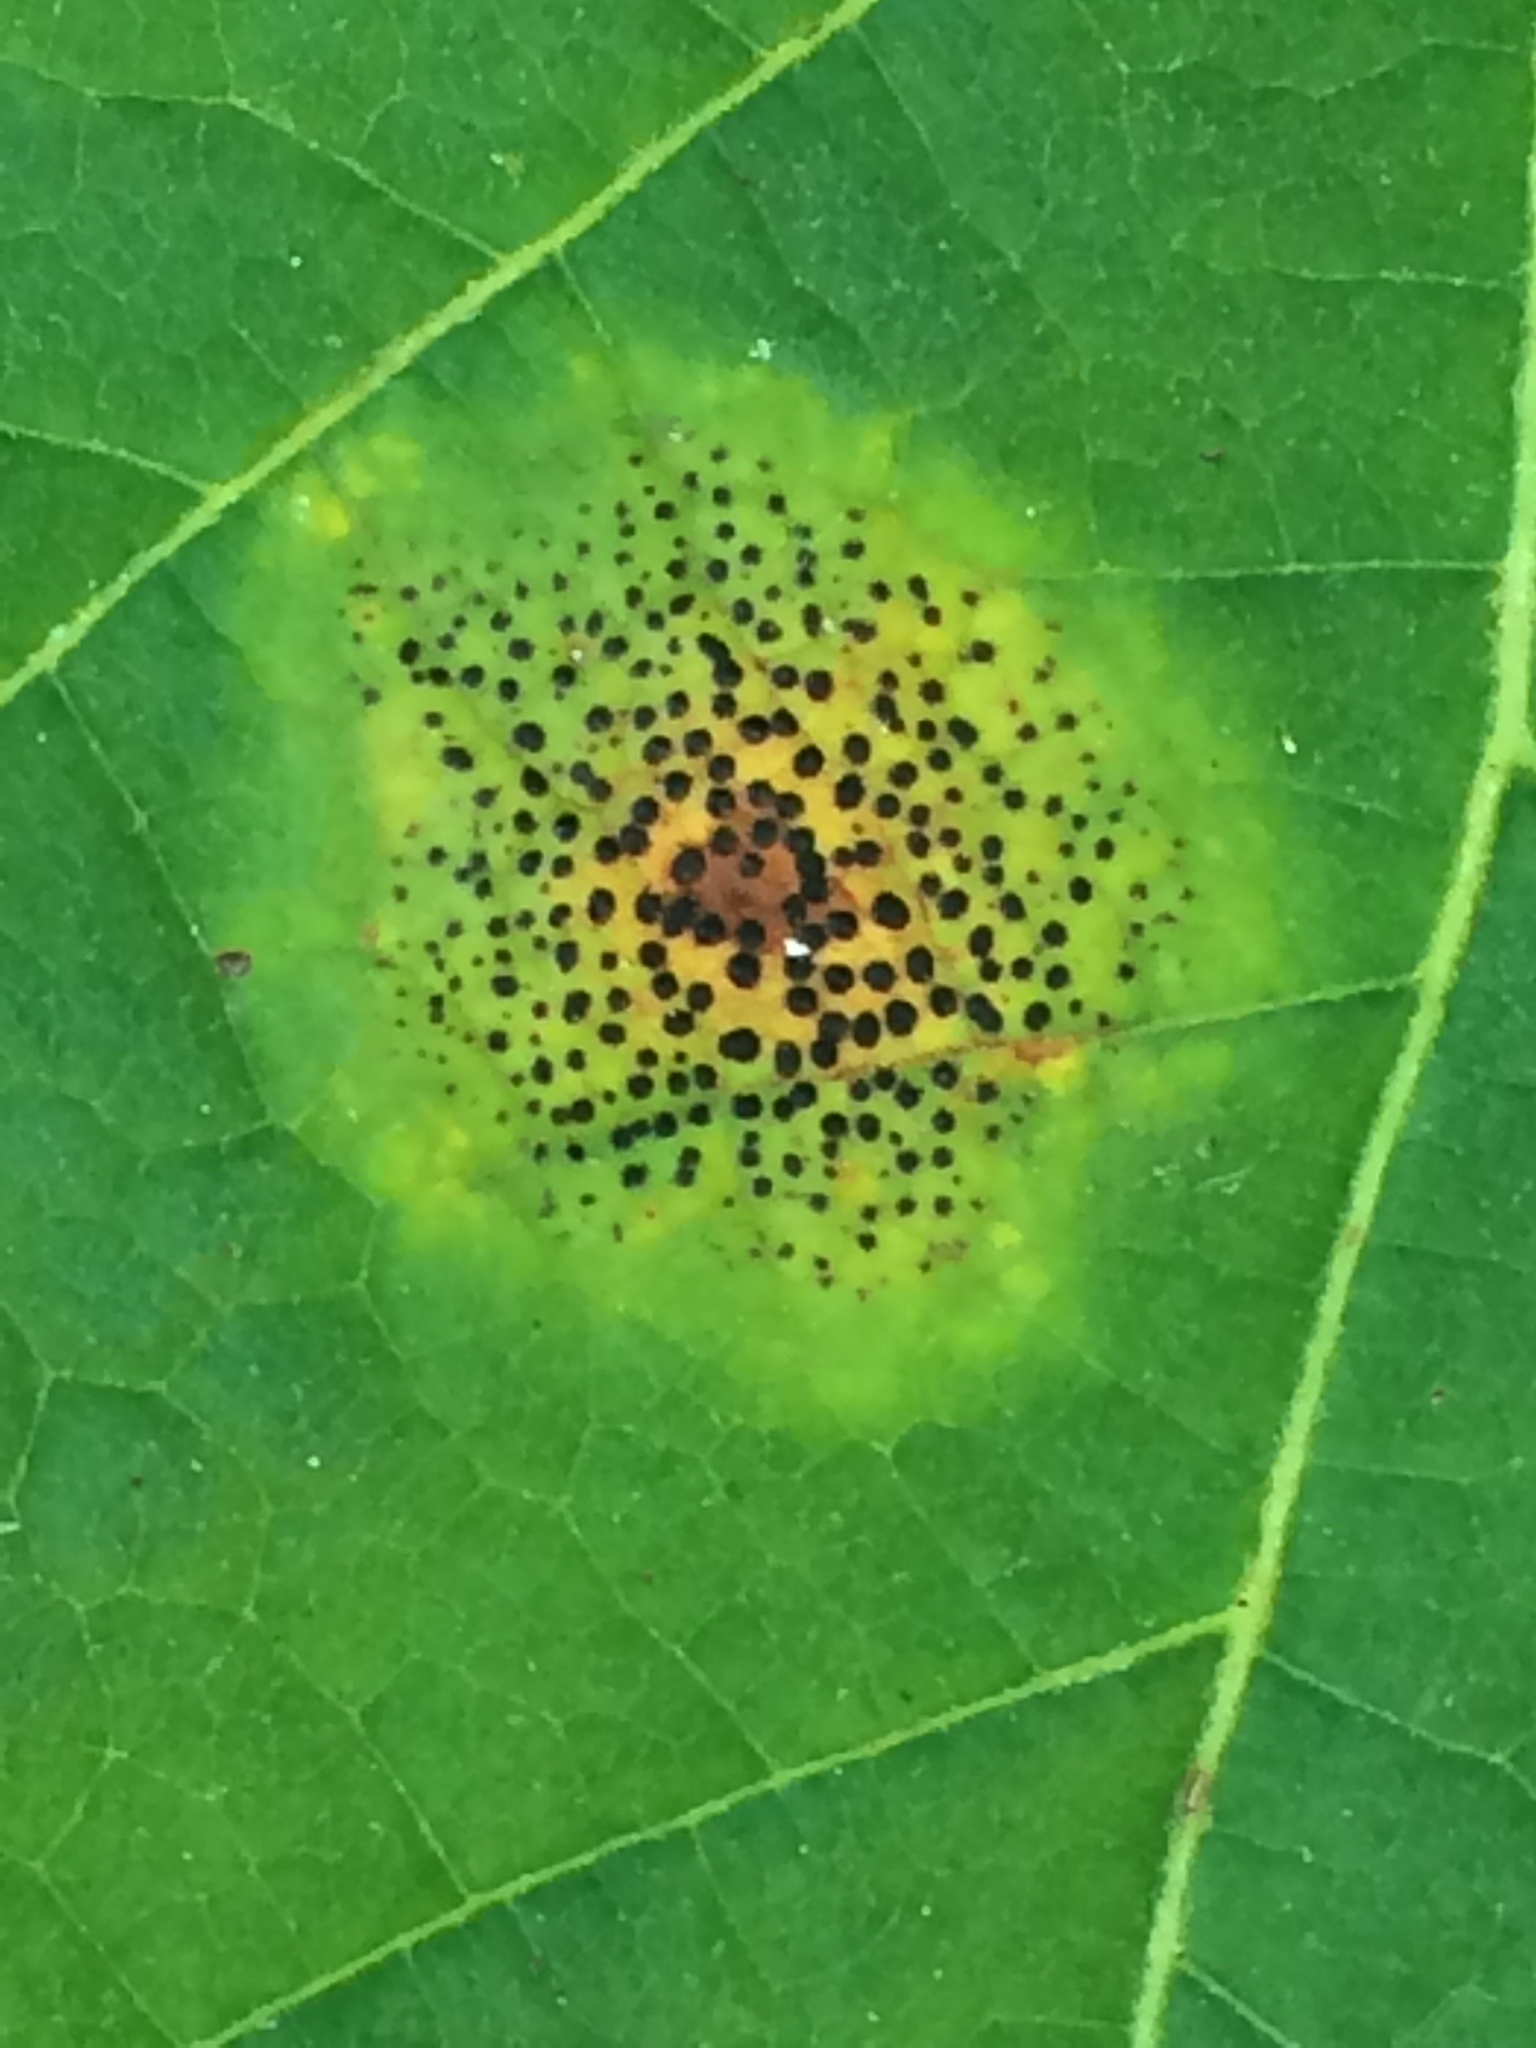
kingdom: Fungi
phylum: Ascomycota
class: Leotiomycetes
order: Rhytismatales
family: Rhytismataceae
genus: Rhytisma
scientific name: Rhytisma punctatum
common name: Speckled tar spot
